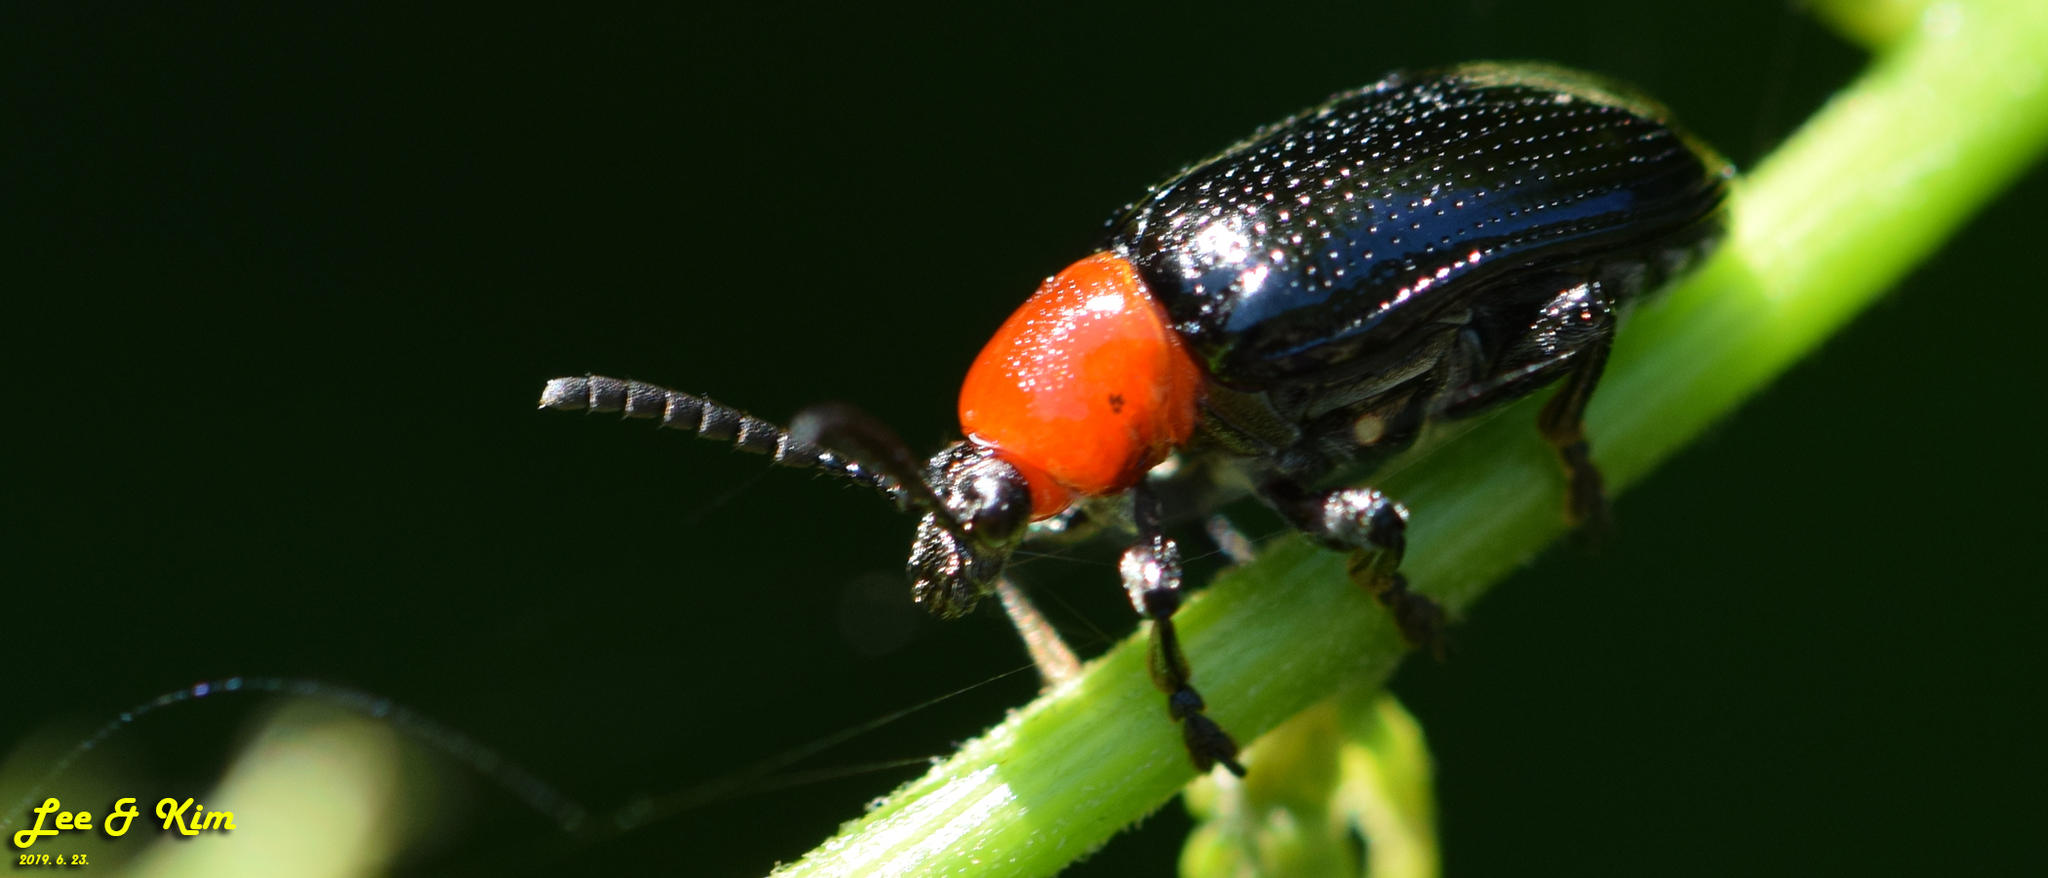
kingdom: Animalia
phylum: Arthropoda
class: Insecta
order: Coleoptera
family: Chrysomelidae
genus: Lilioceris
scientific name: Lilioceris sieversi
